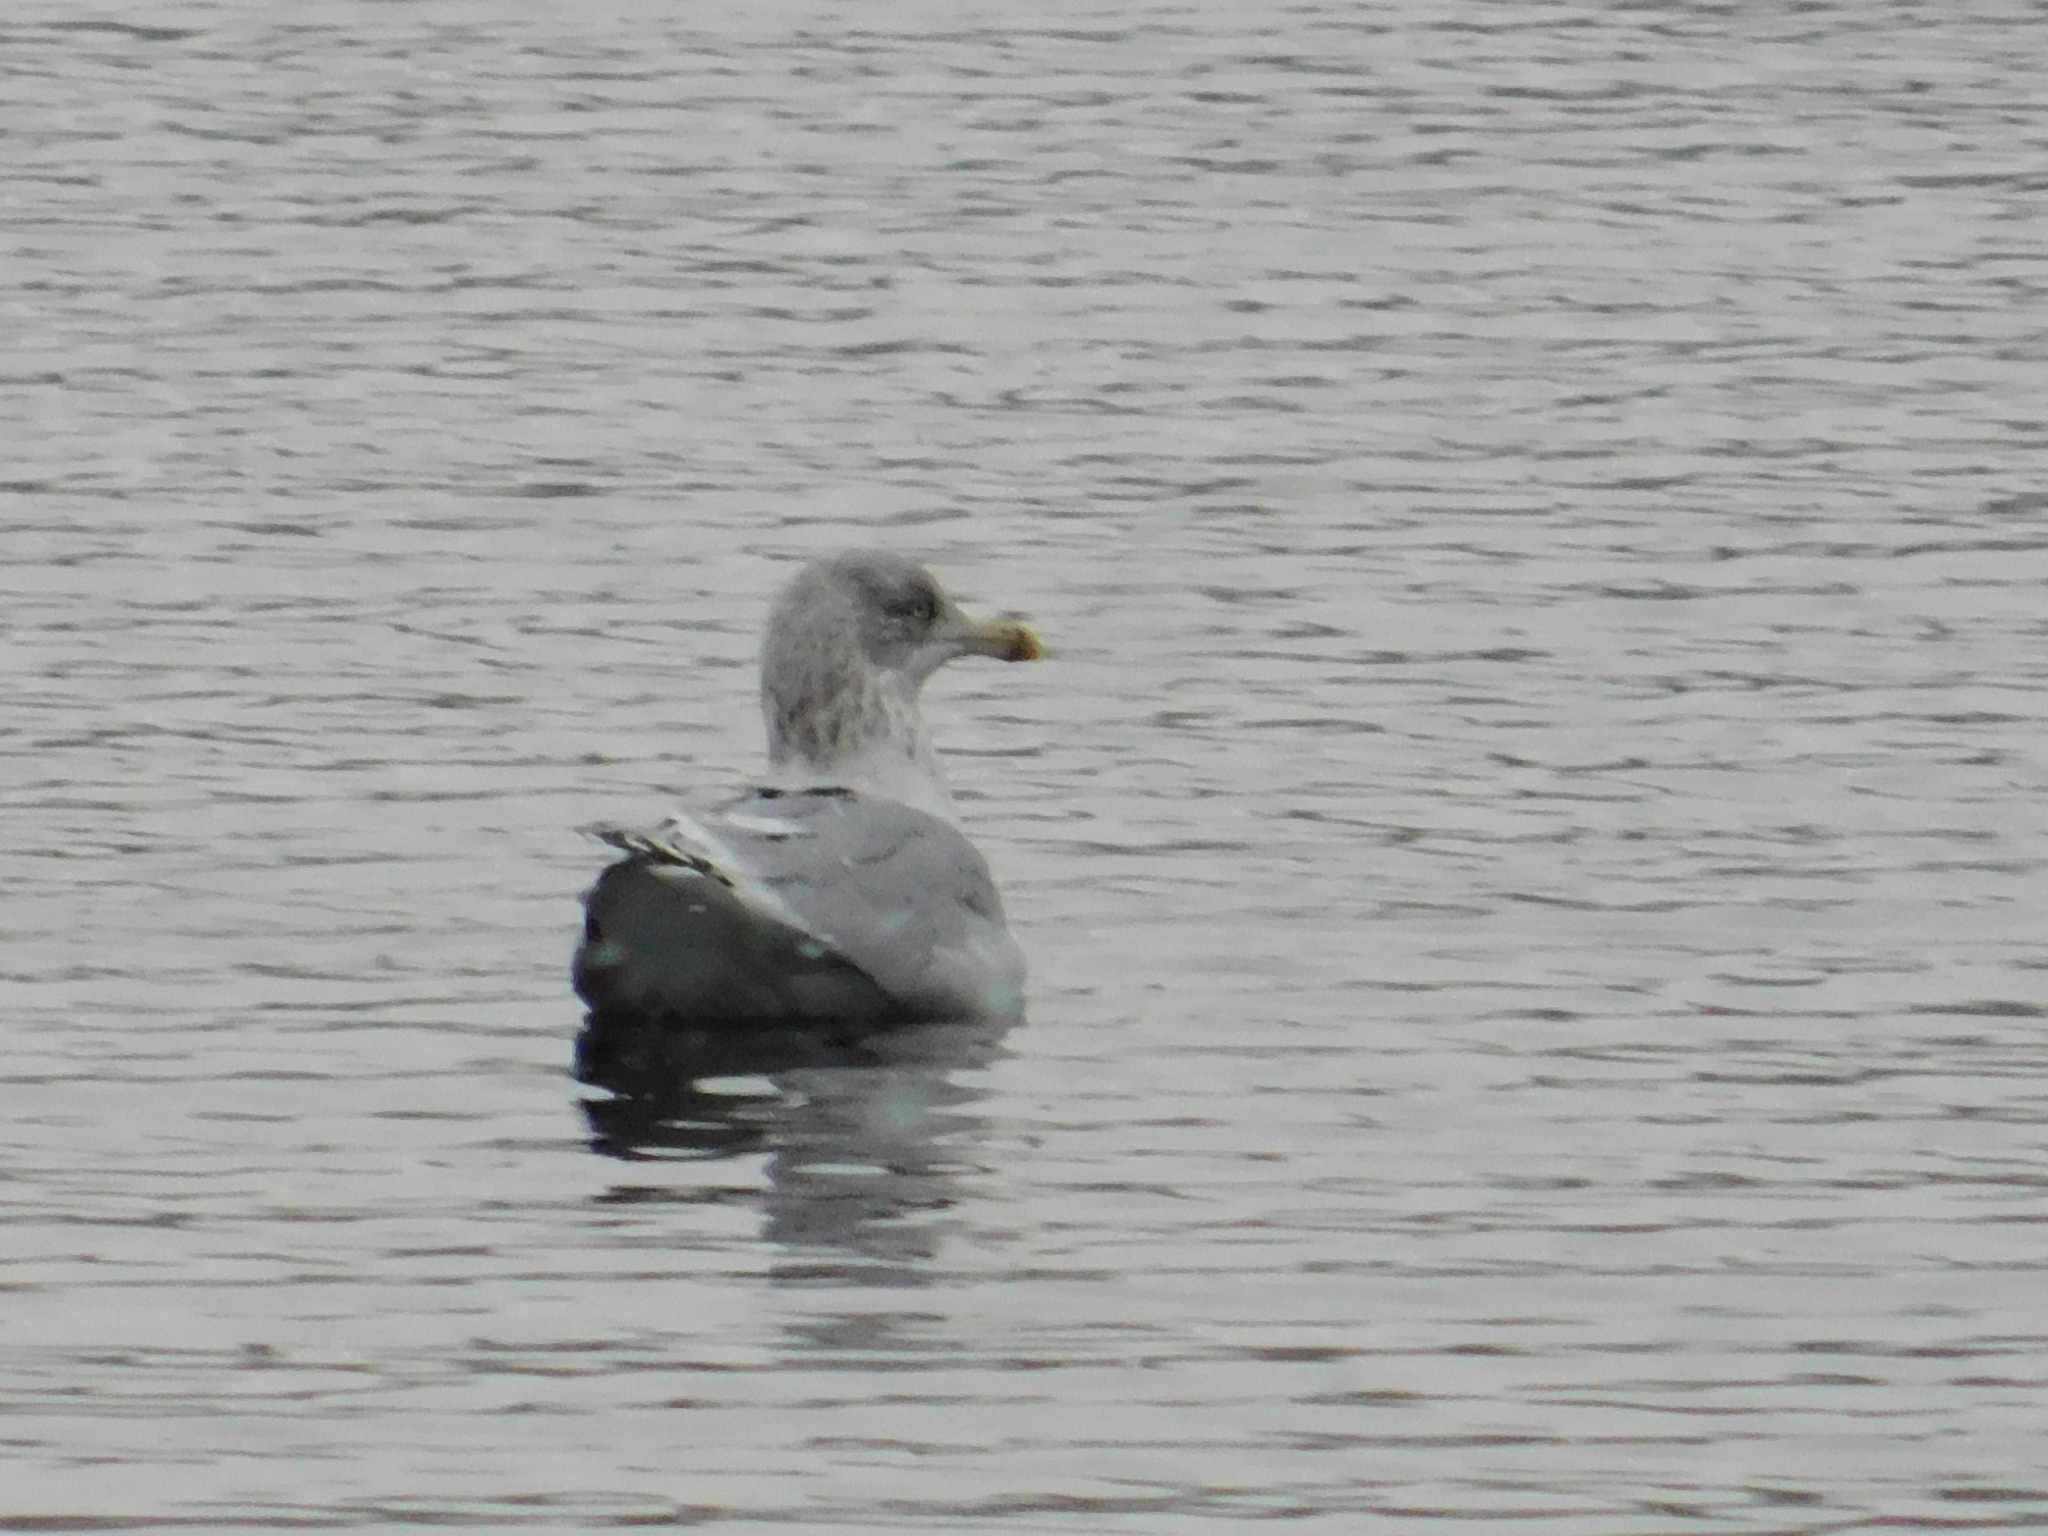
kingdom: Animalia
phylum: Chordata
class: Aves
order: Charadriiformes
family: Laridae
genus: Larus
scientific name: Larus argentatus
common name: Herring gull
